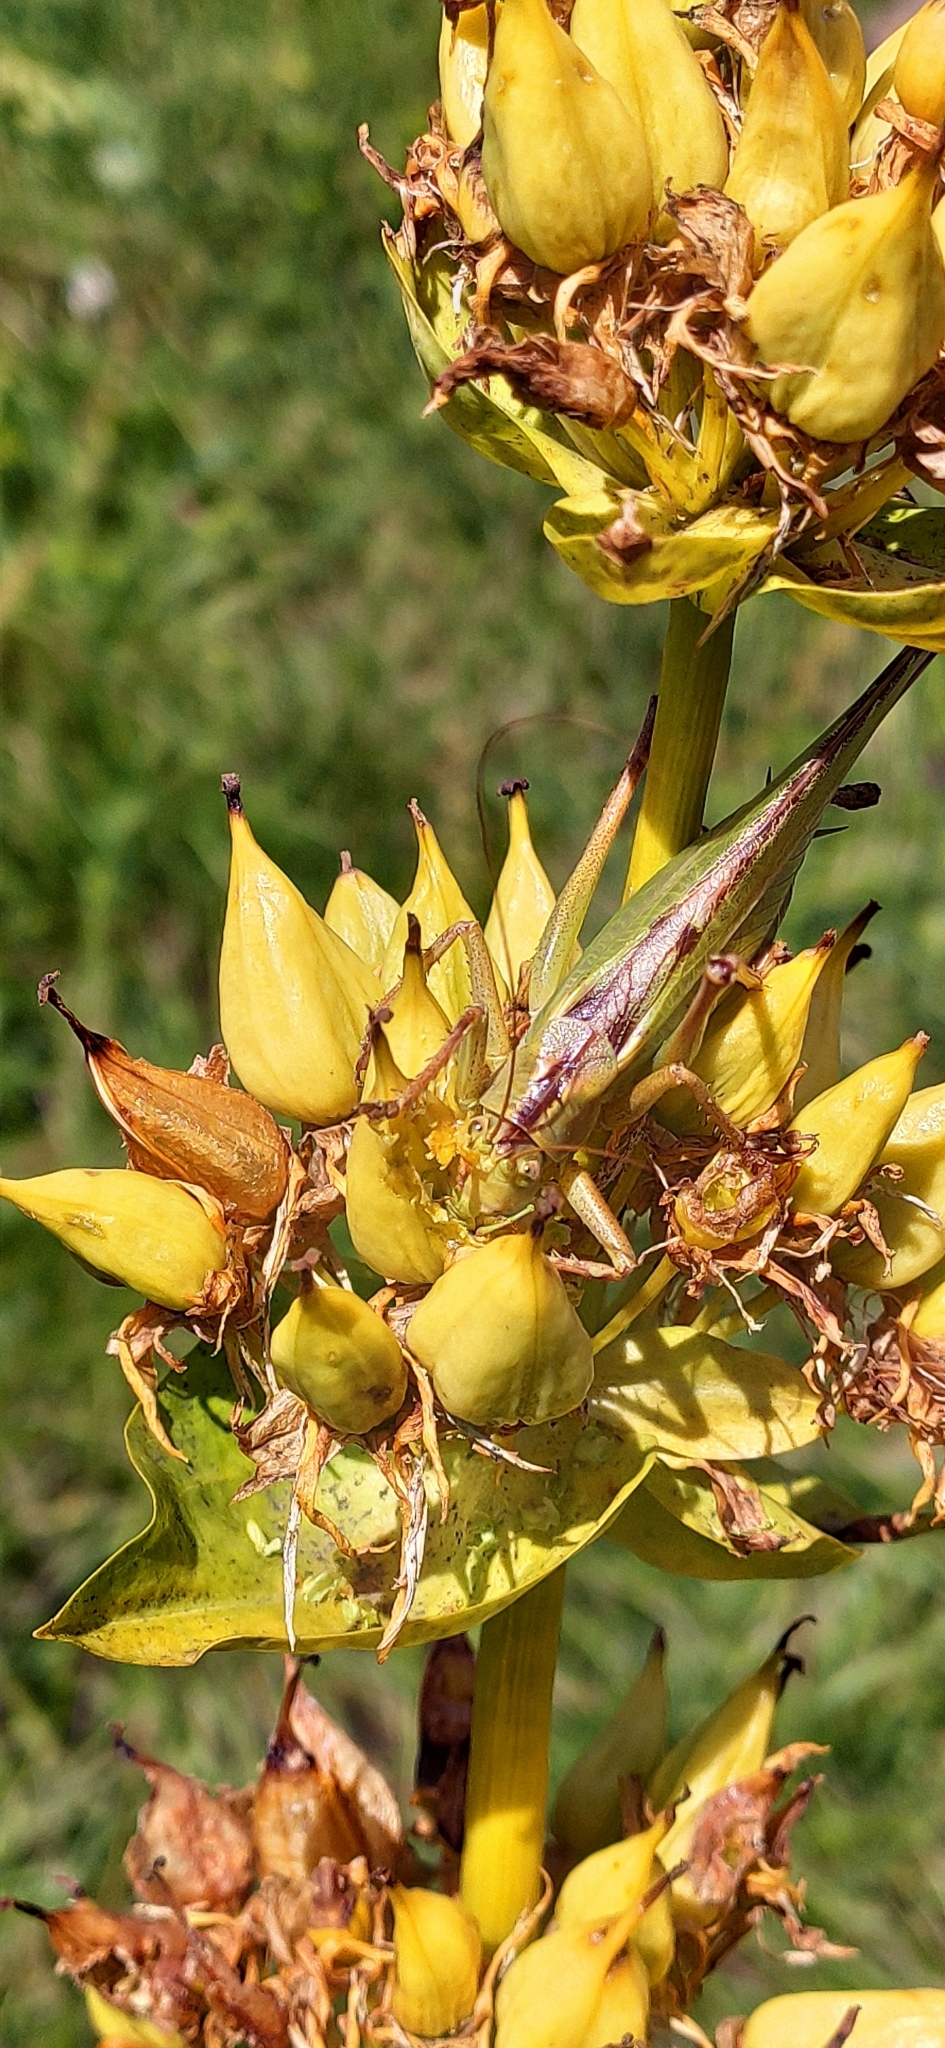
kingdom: Animalia
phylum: Arthropoda
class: Insecta
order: Orthoptera
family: Tettigoniidae
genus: Tettigonia
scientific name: Tettigonia viridissima
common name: Great green bush-cricket
